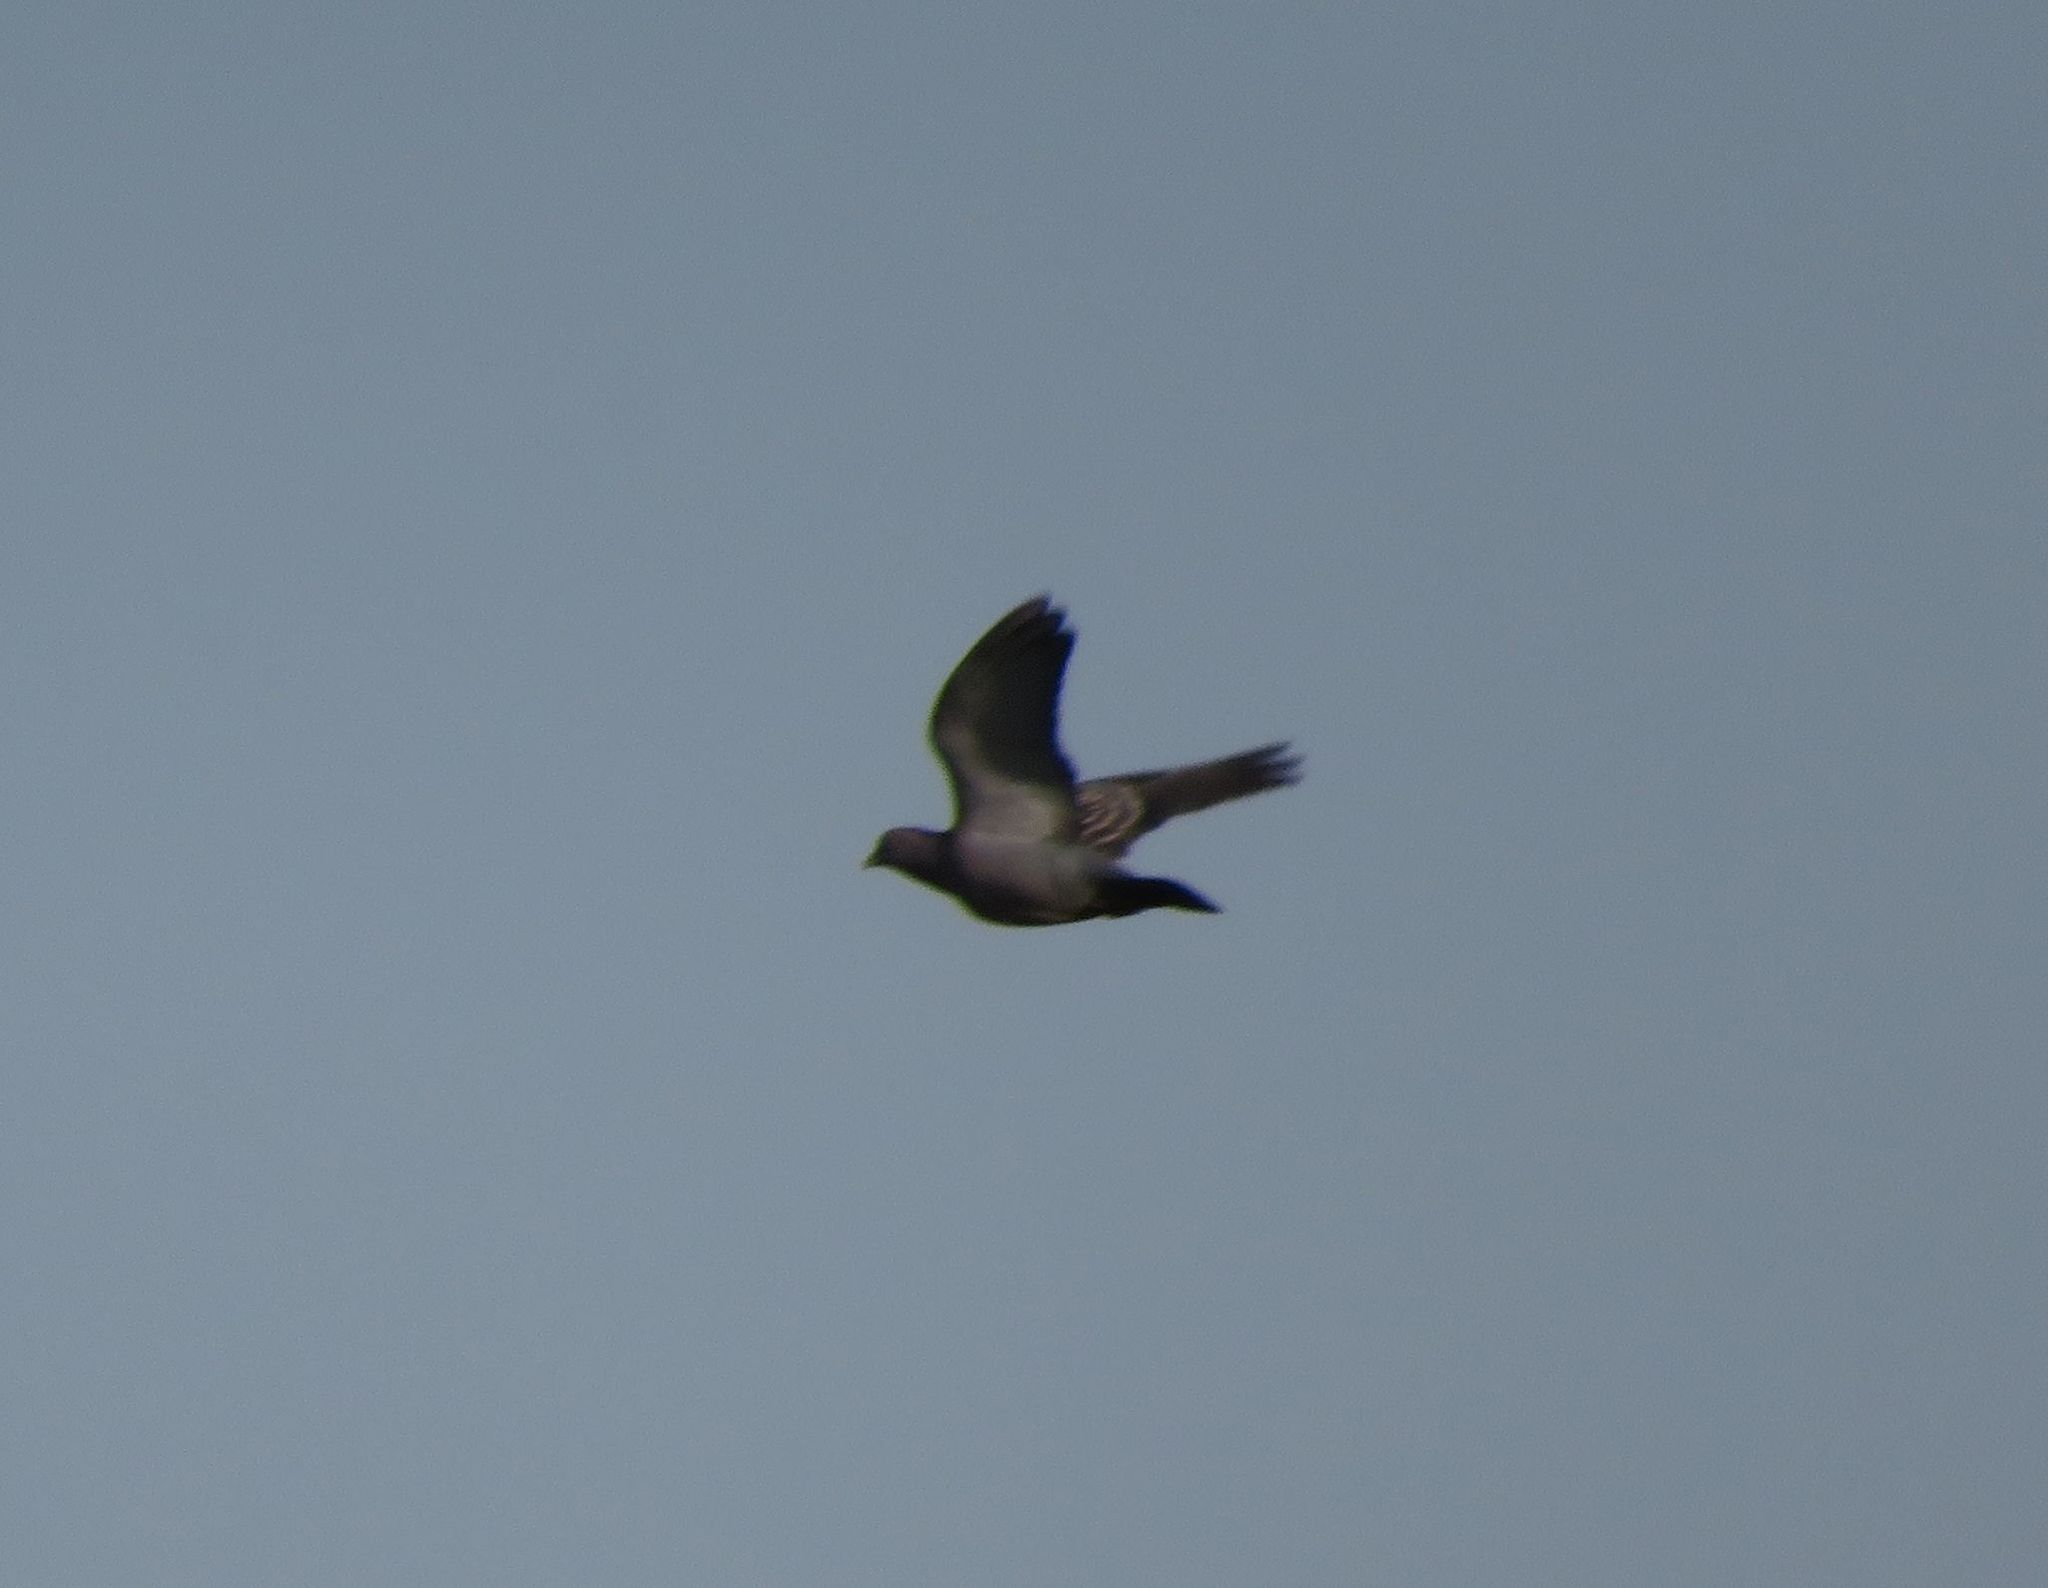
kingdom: Animalia
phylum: Chordata
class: Aves
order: Columbiformes
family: Columbidae
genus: Patagioenas
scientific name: Patagioenas maculosa
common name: Spot-winged pigeon
